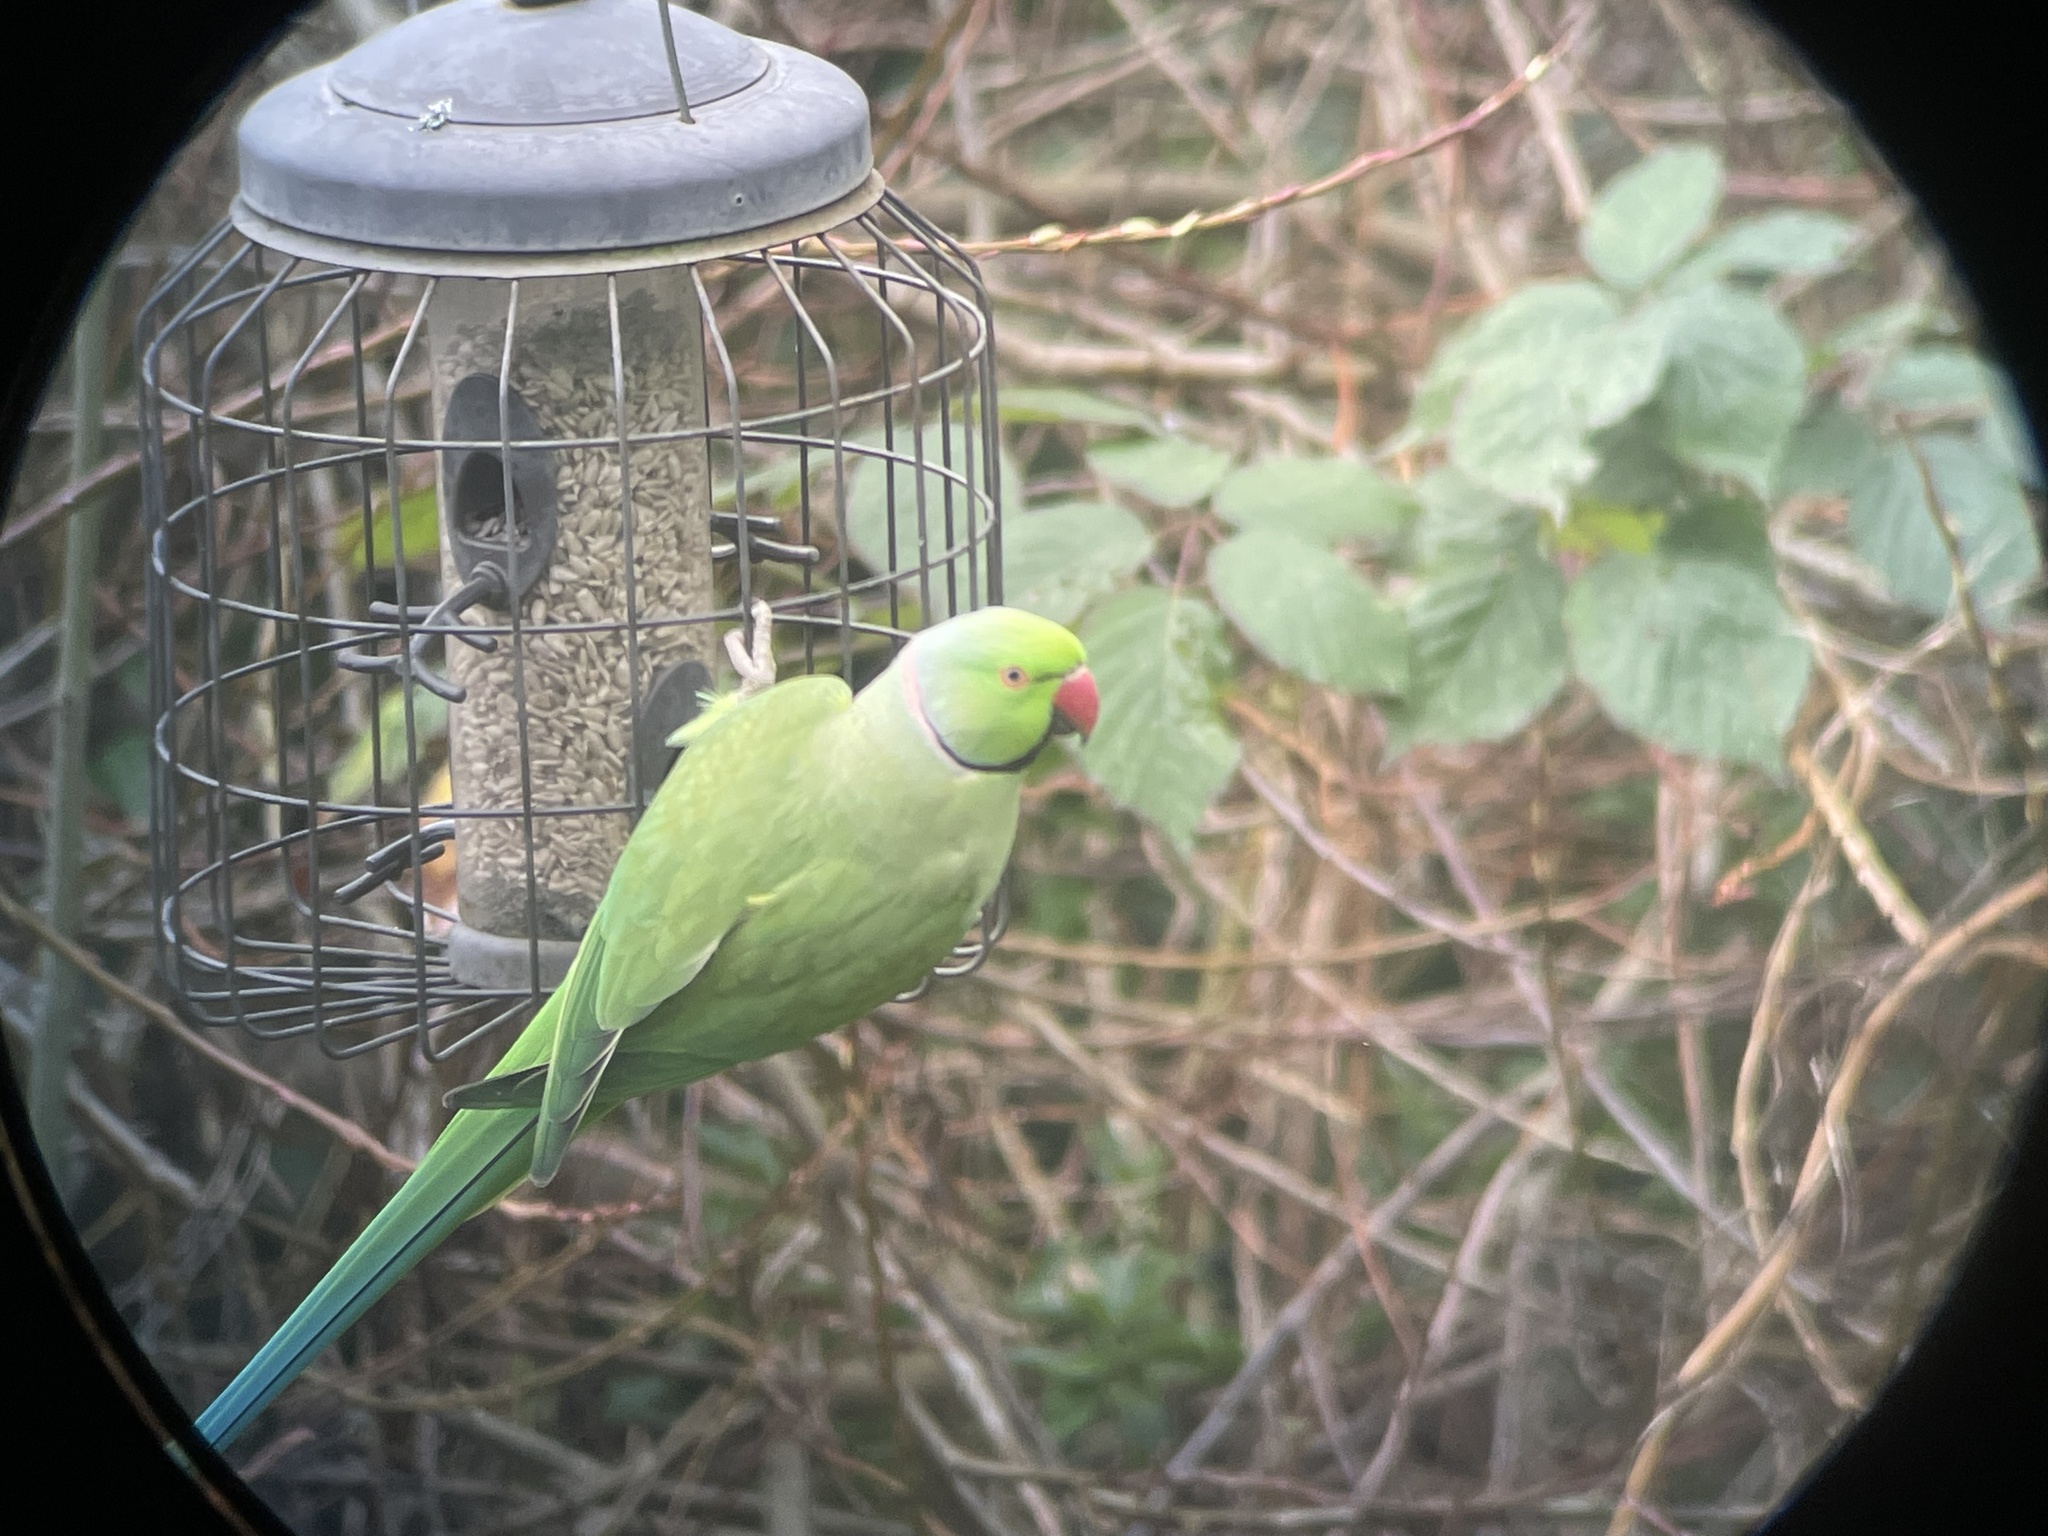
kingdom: Animalia
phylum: Chordata
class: Aves
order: Psittaciformes
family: Psittacidae
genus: Psittacula
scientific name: Psittacula krameri
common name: Rose-ringed parakeet
